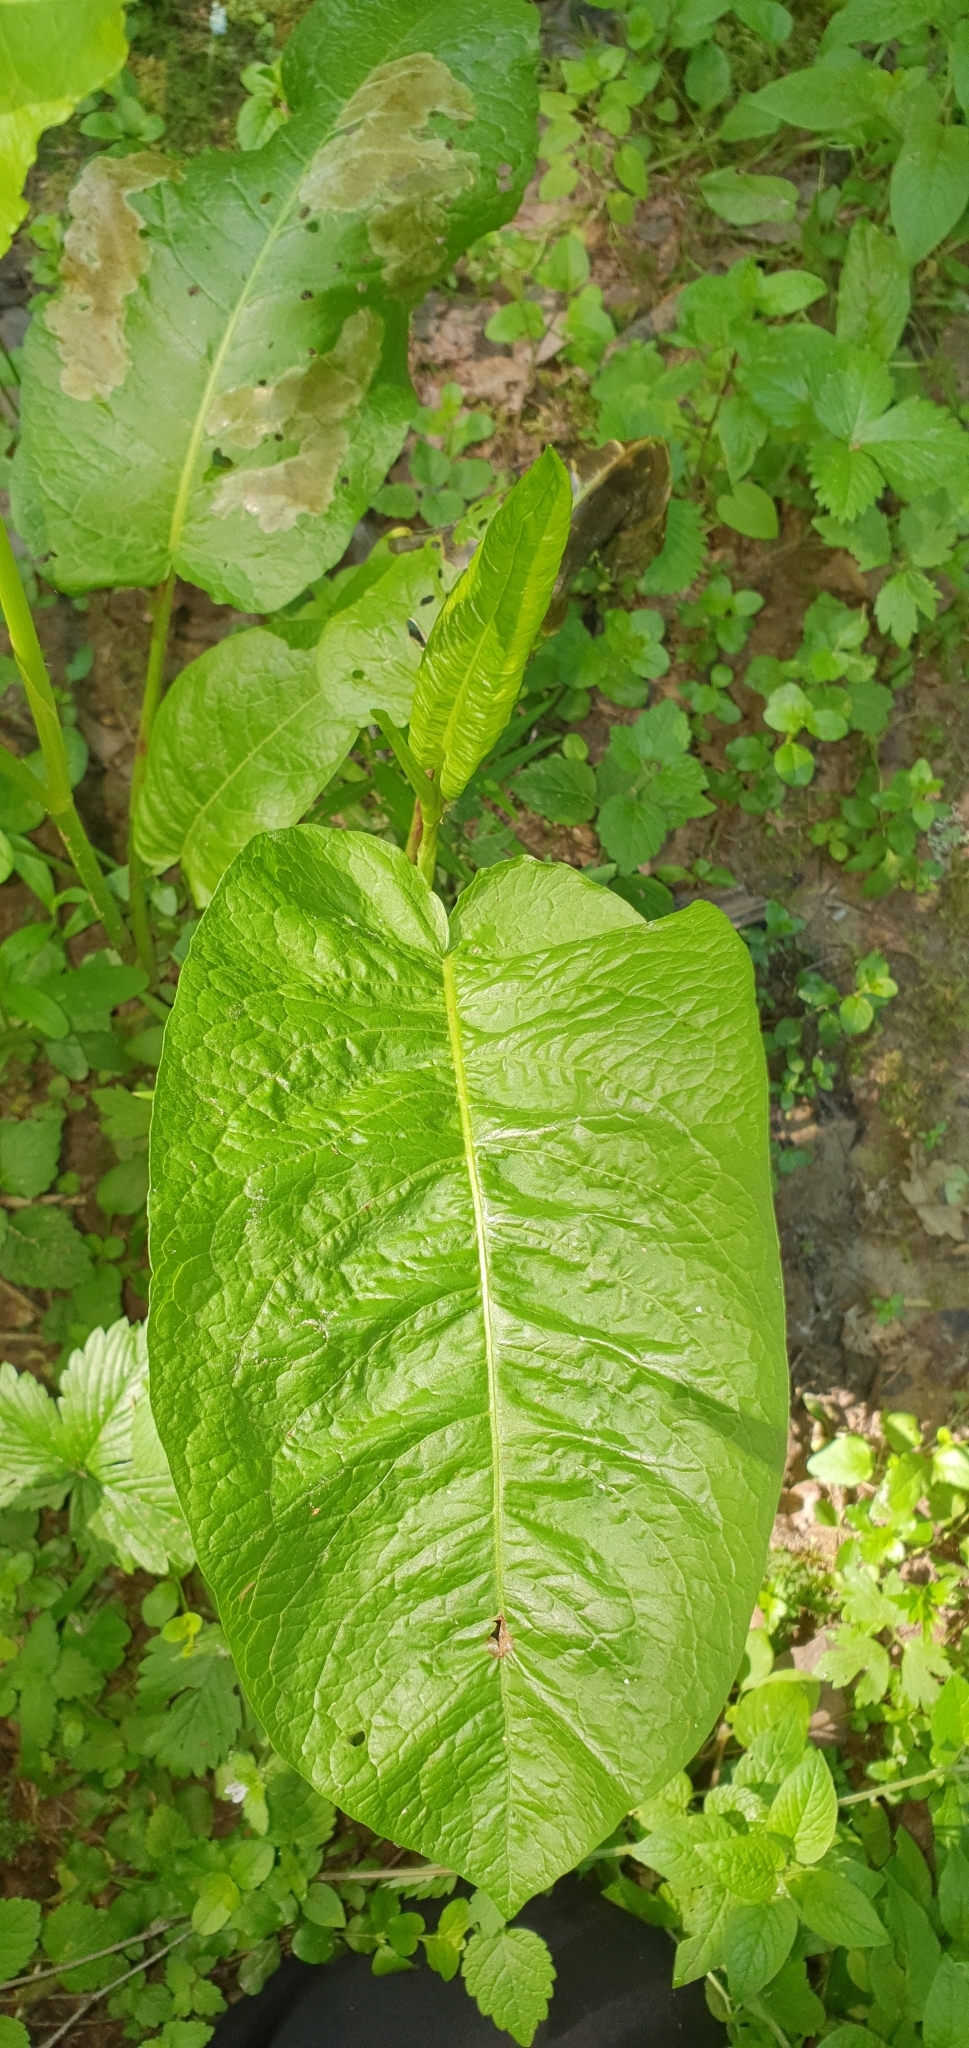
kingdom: Plantae
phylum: Tracheophyta
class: Magnoliopsida
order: Caryophyllales
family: Polygonaceae
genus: Rumex
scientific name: Rumex obtusifolius
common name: Bitter dock
